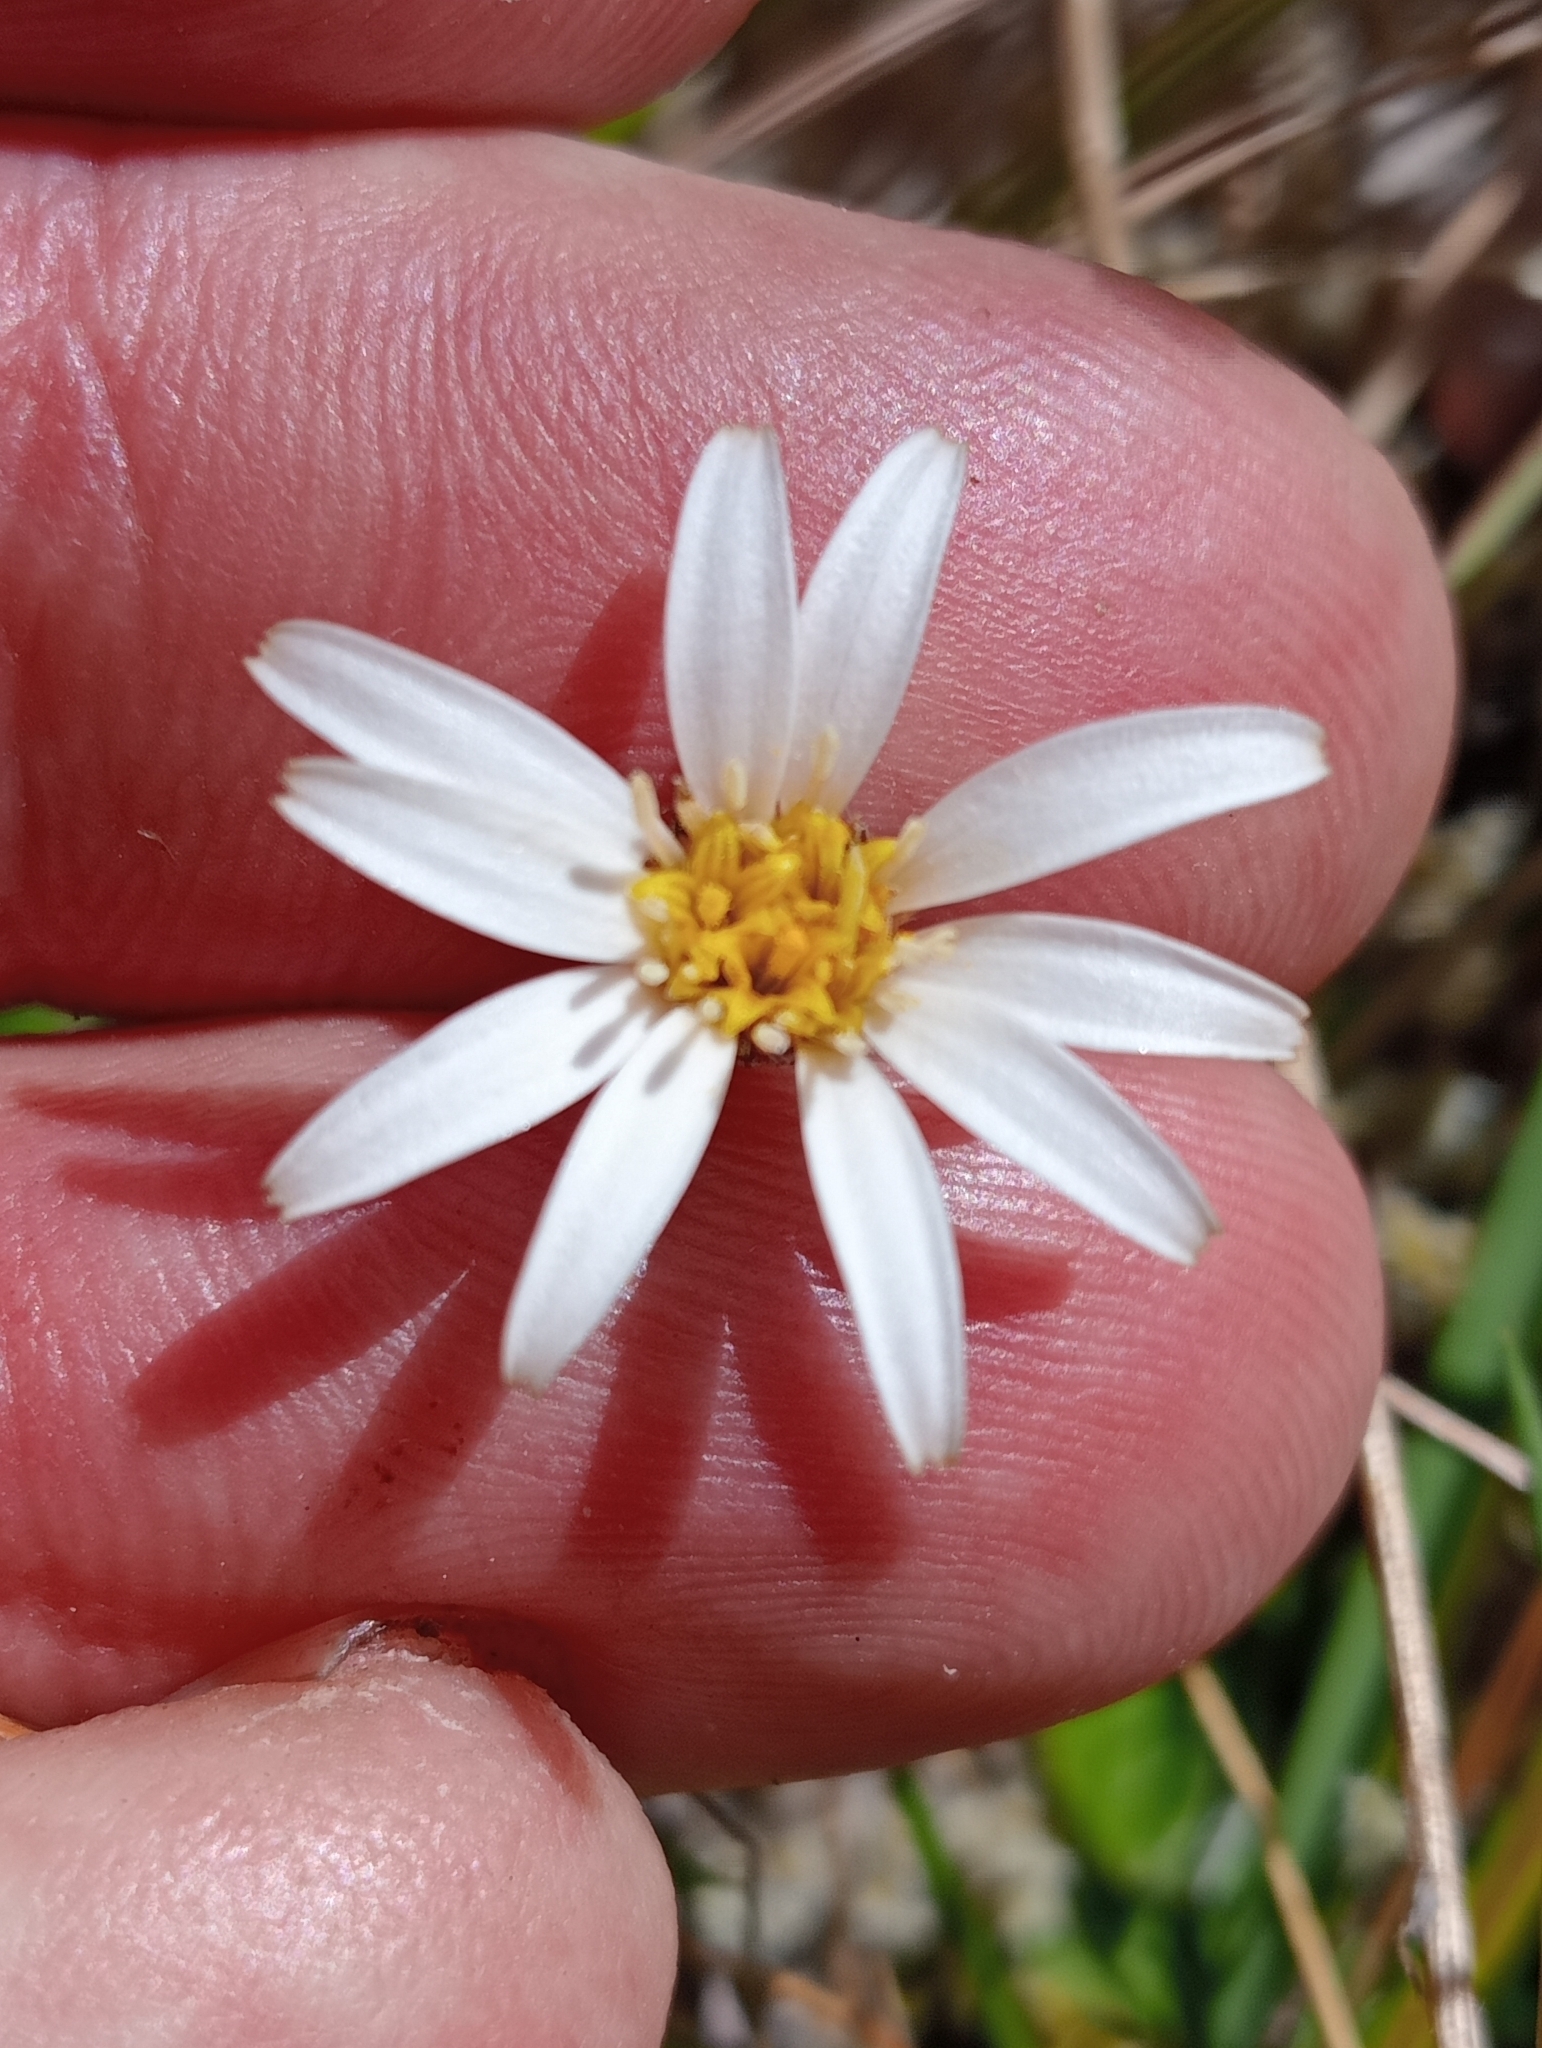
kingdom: Plantae
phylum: Tracheophyta
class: Magnoliopsida
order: Asterales
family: Asteraceae
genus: Celmisia
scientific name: Celmisia gracilenta
